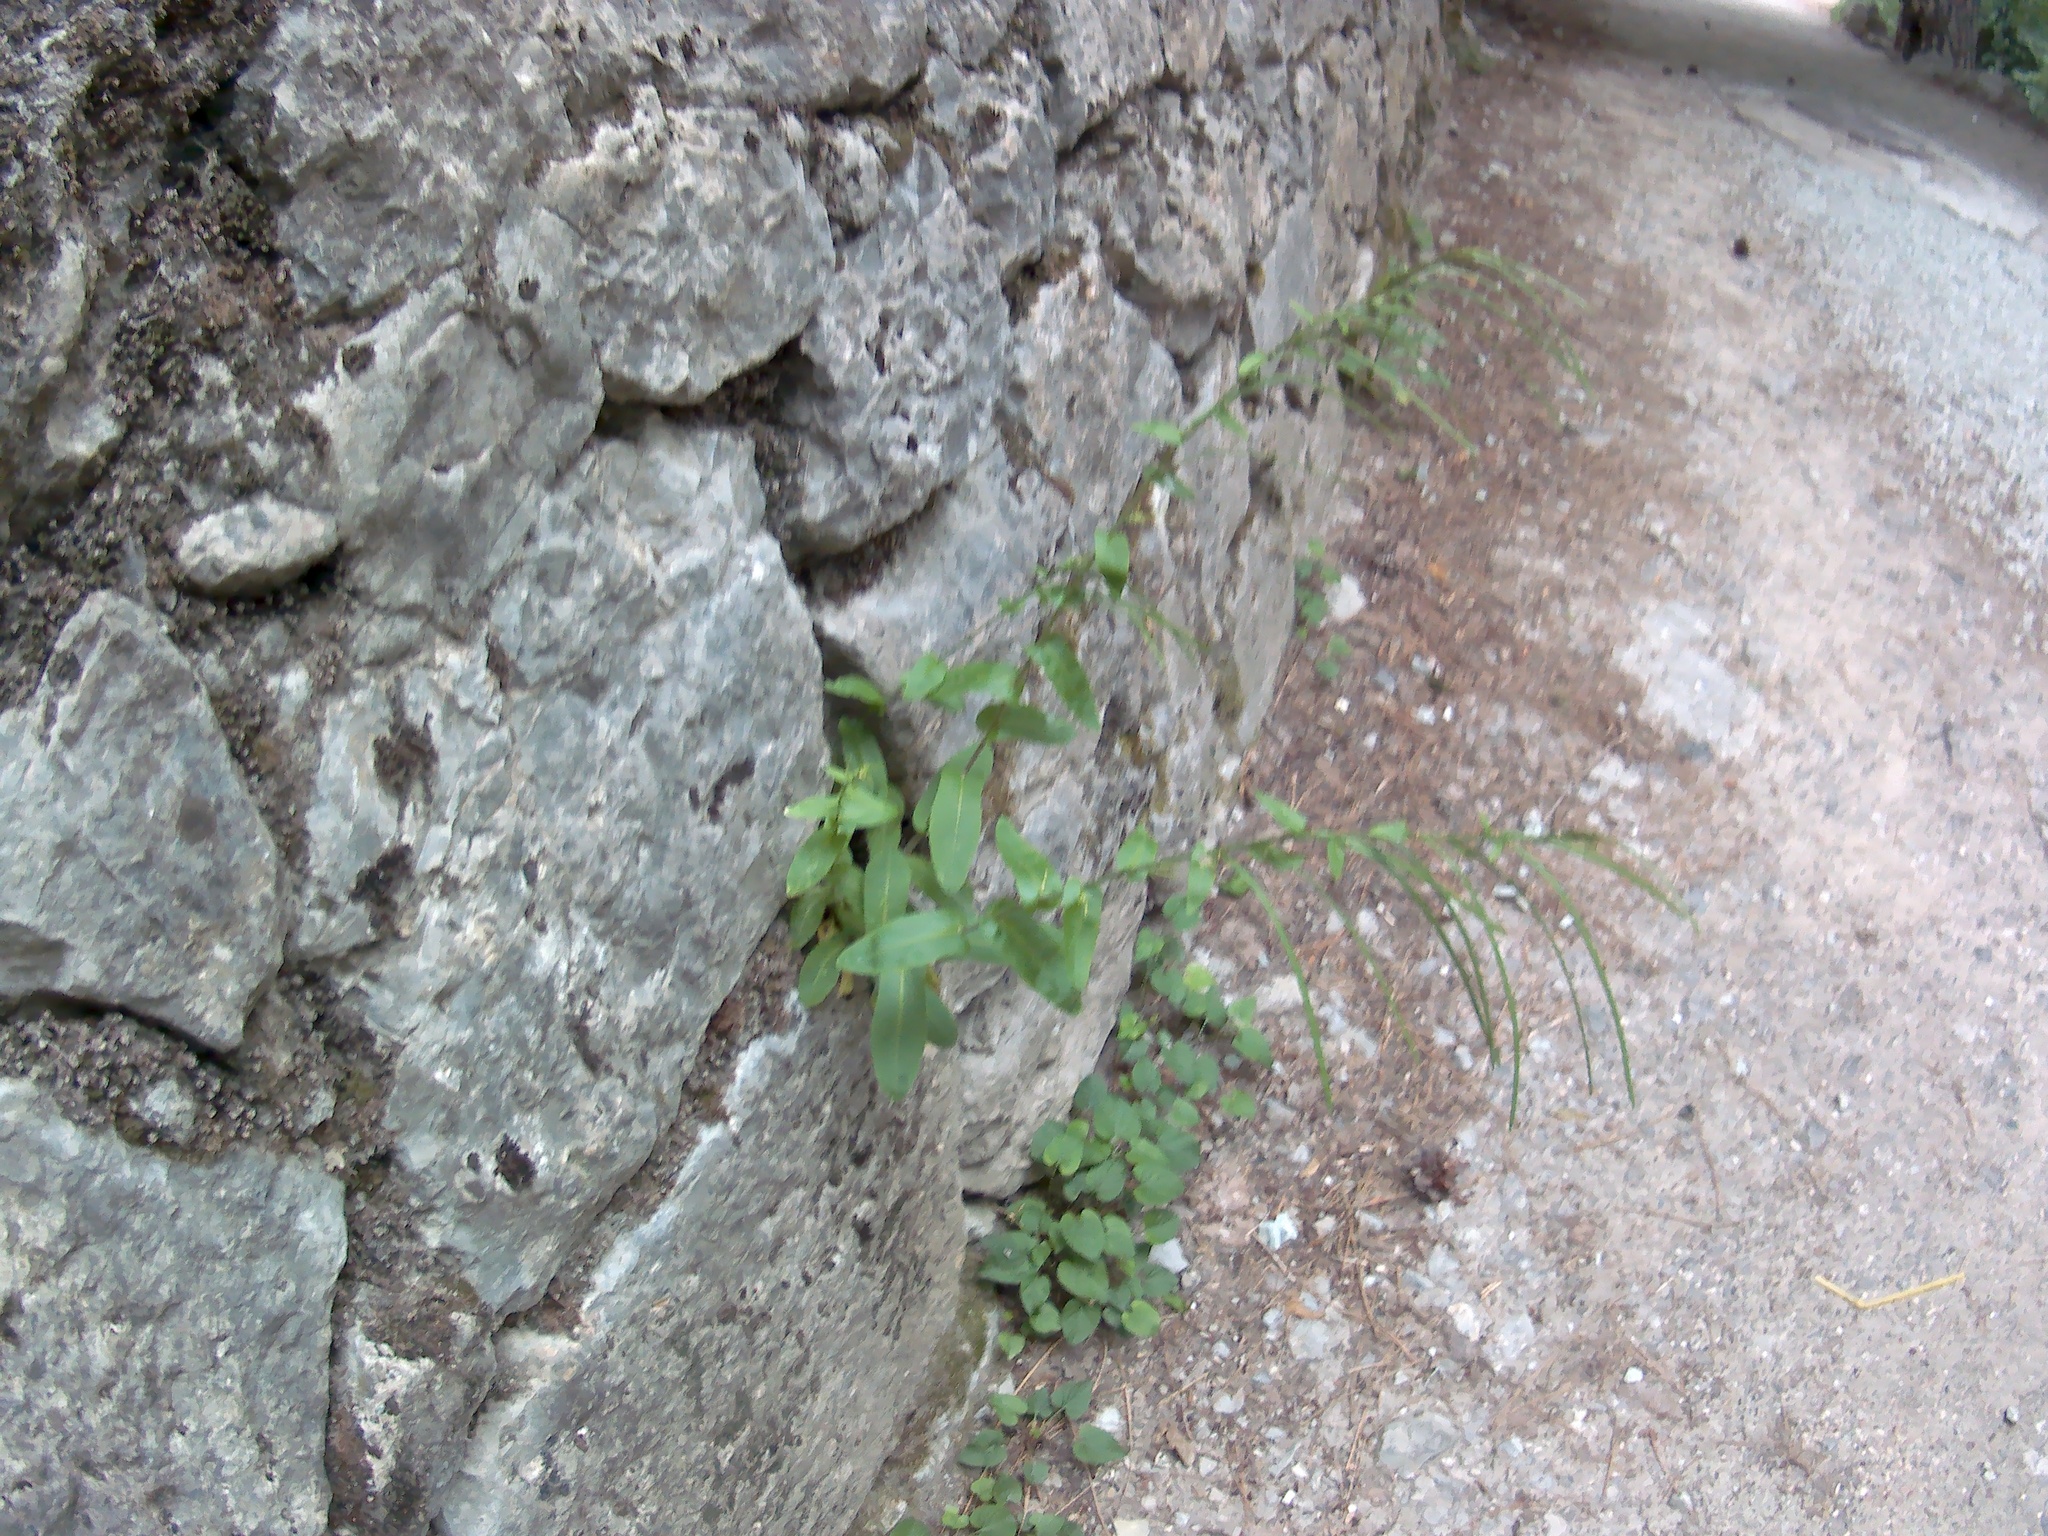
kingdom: Plantae
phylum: Tracheophyta
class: Magnoliopsida
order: Brassicales
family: Brassicaceae
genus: Pseudoturritis
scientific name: Pseudoturritis turrita
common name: Tower cress
